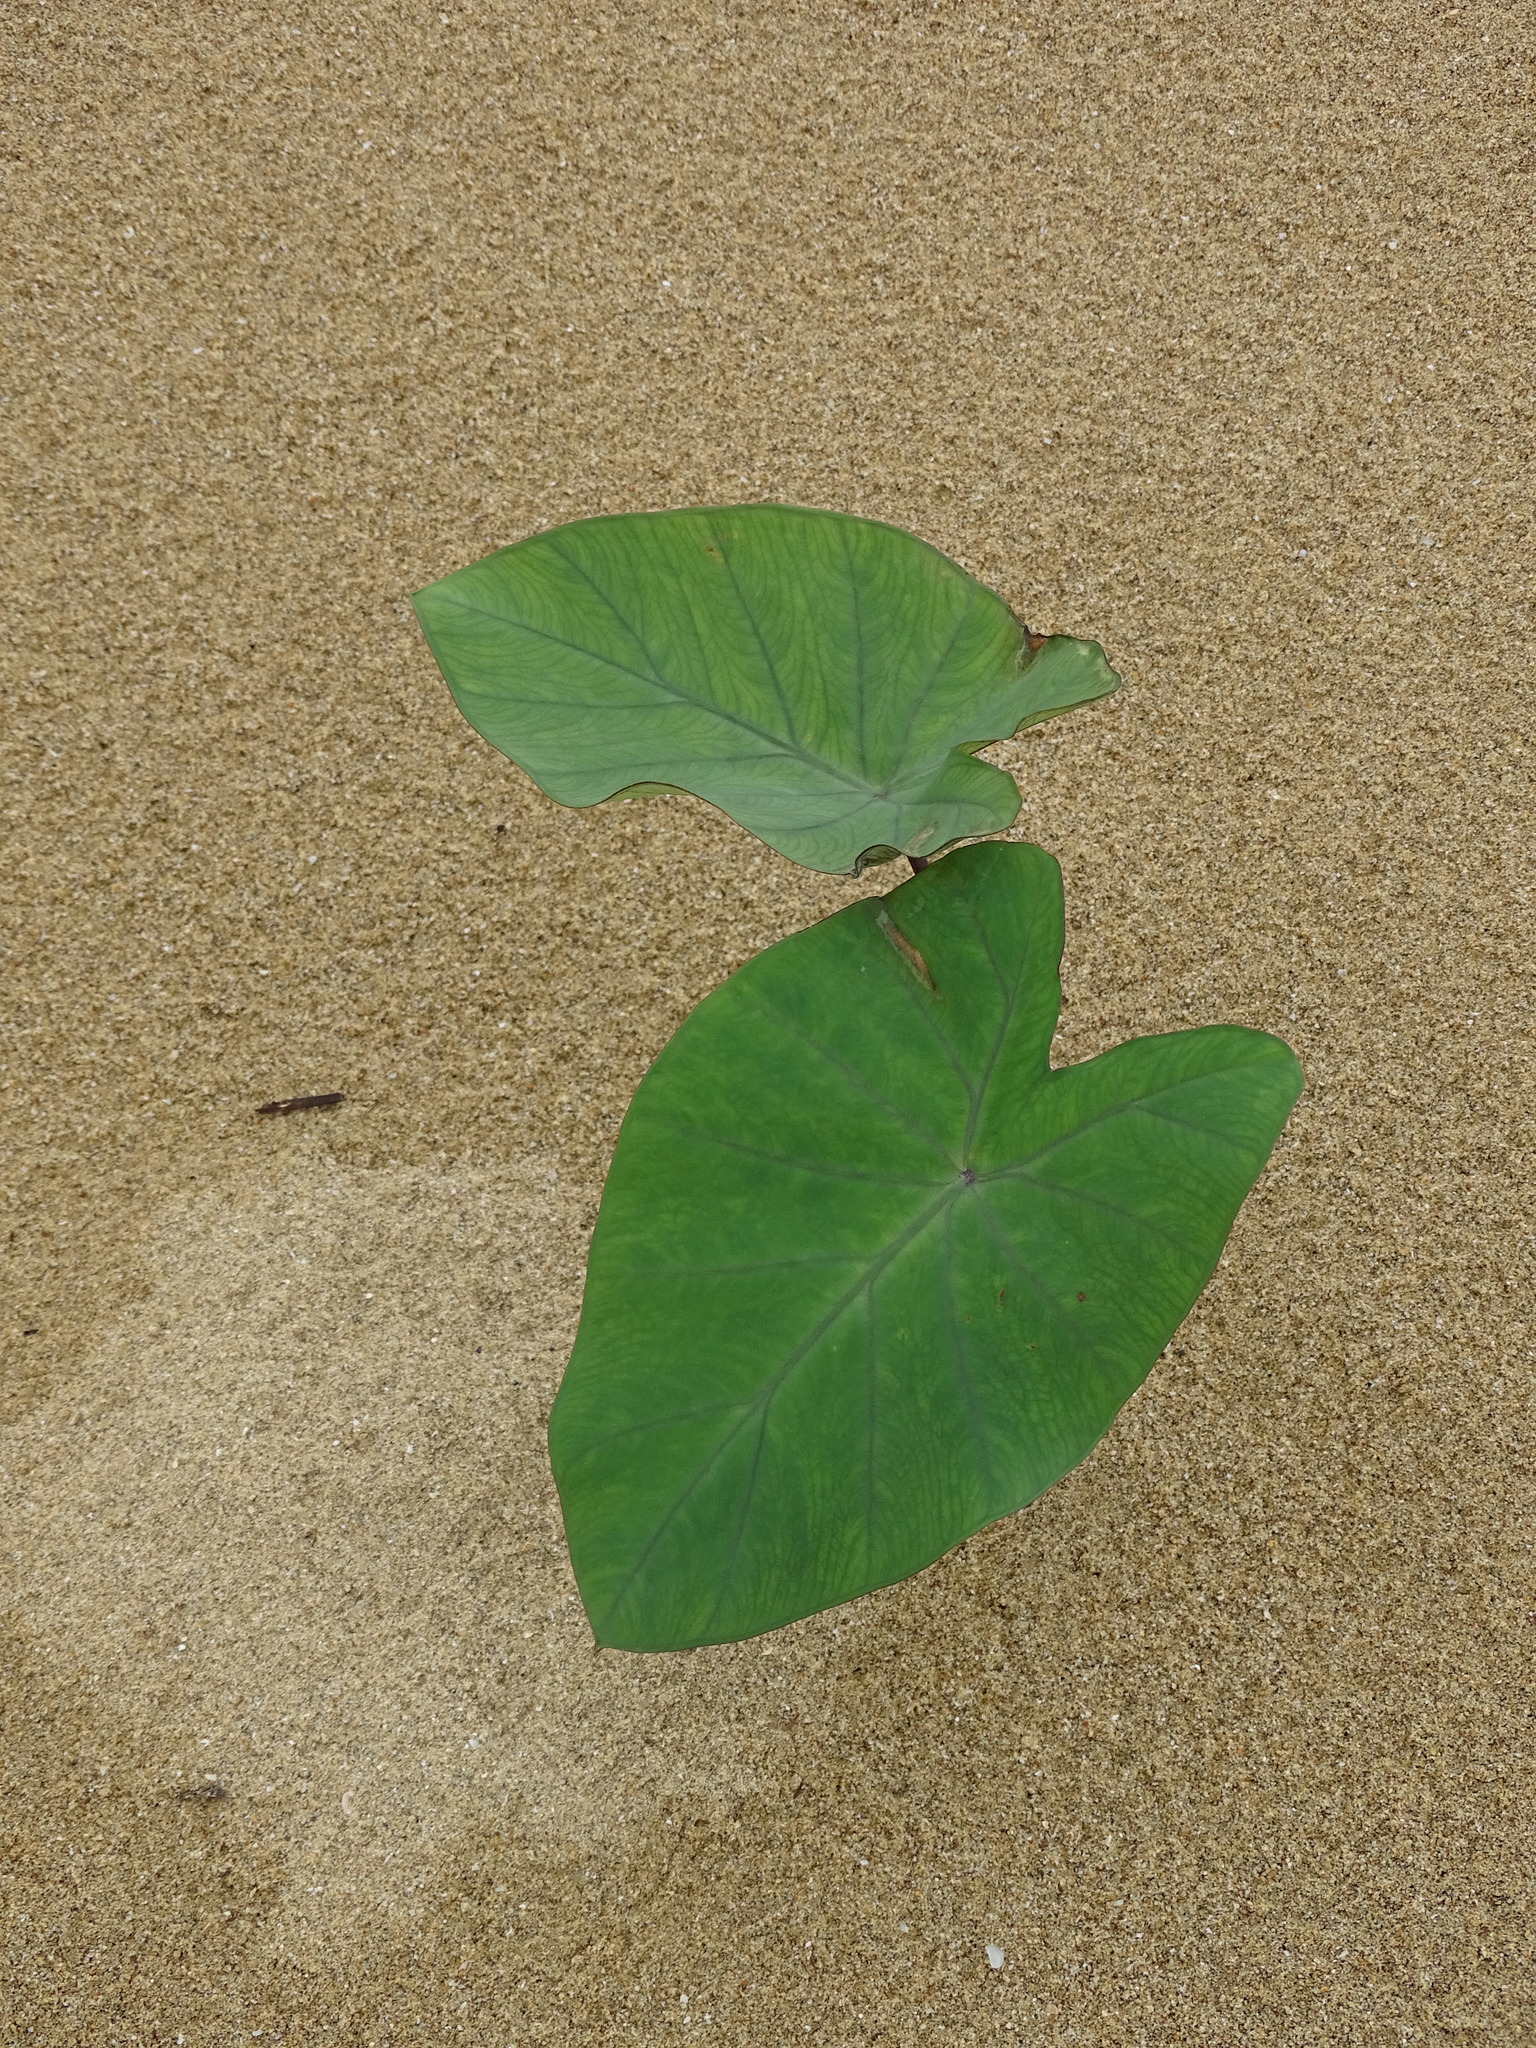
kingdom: Plantae
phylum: Tracheophyta
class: Liliopsida
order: Alismatales
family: Araceae
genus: Colocasia
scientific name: Colocasia esculenta
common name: Taro
